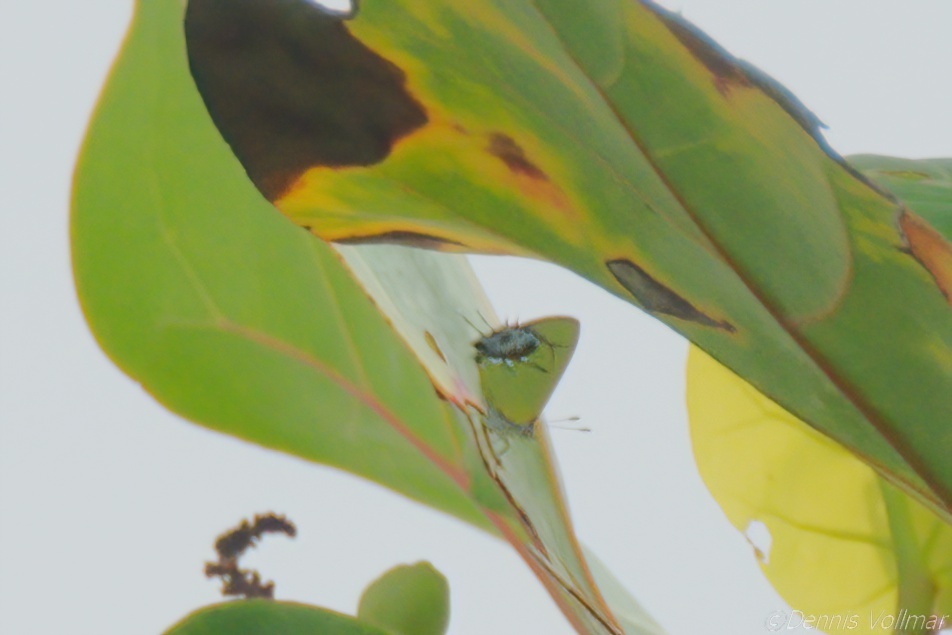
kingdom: Animalia
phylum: Arthropoda
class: Insecta
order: Lepidoptera
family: Lycaenidae
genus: Thecla
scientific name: Thecla maesites
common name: Verde azul hairstreak
